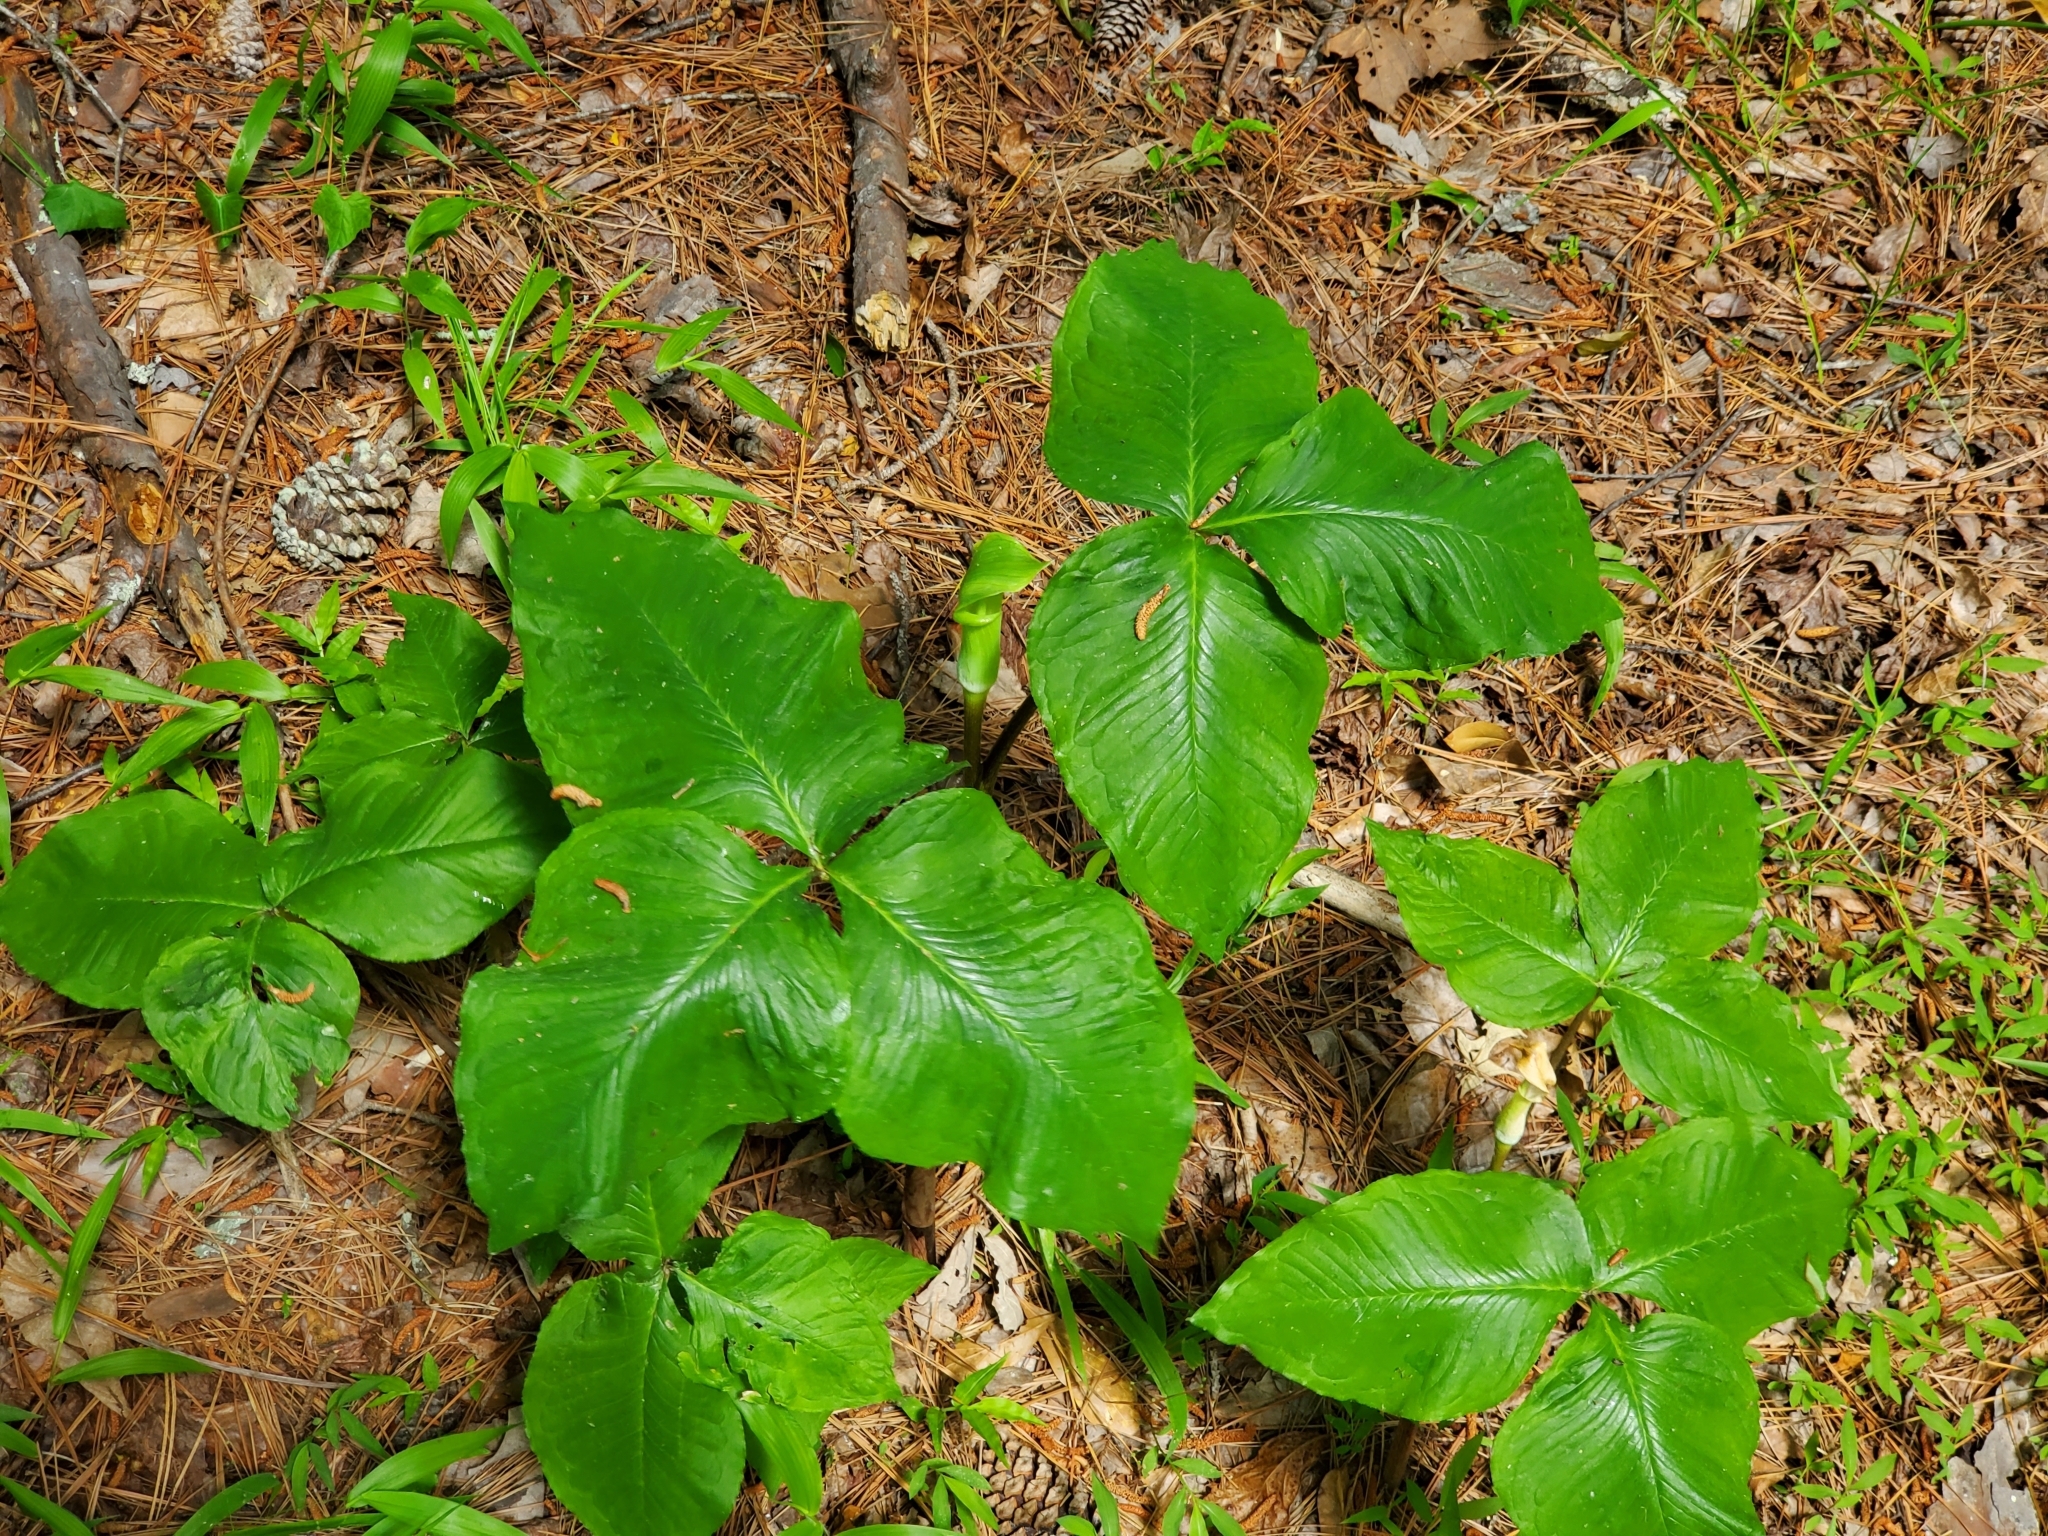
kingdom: Plantae
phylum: Tracheophyta
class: Liliopsida
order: Alismatales
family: Araceae
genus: Arisaema
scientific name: Arisaema quinatum
